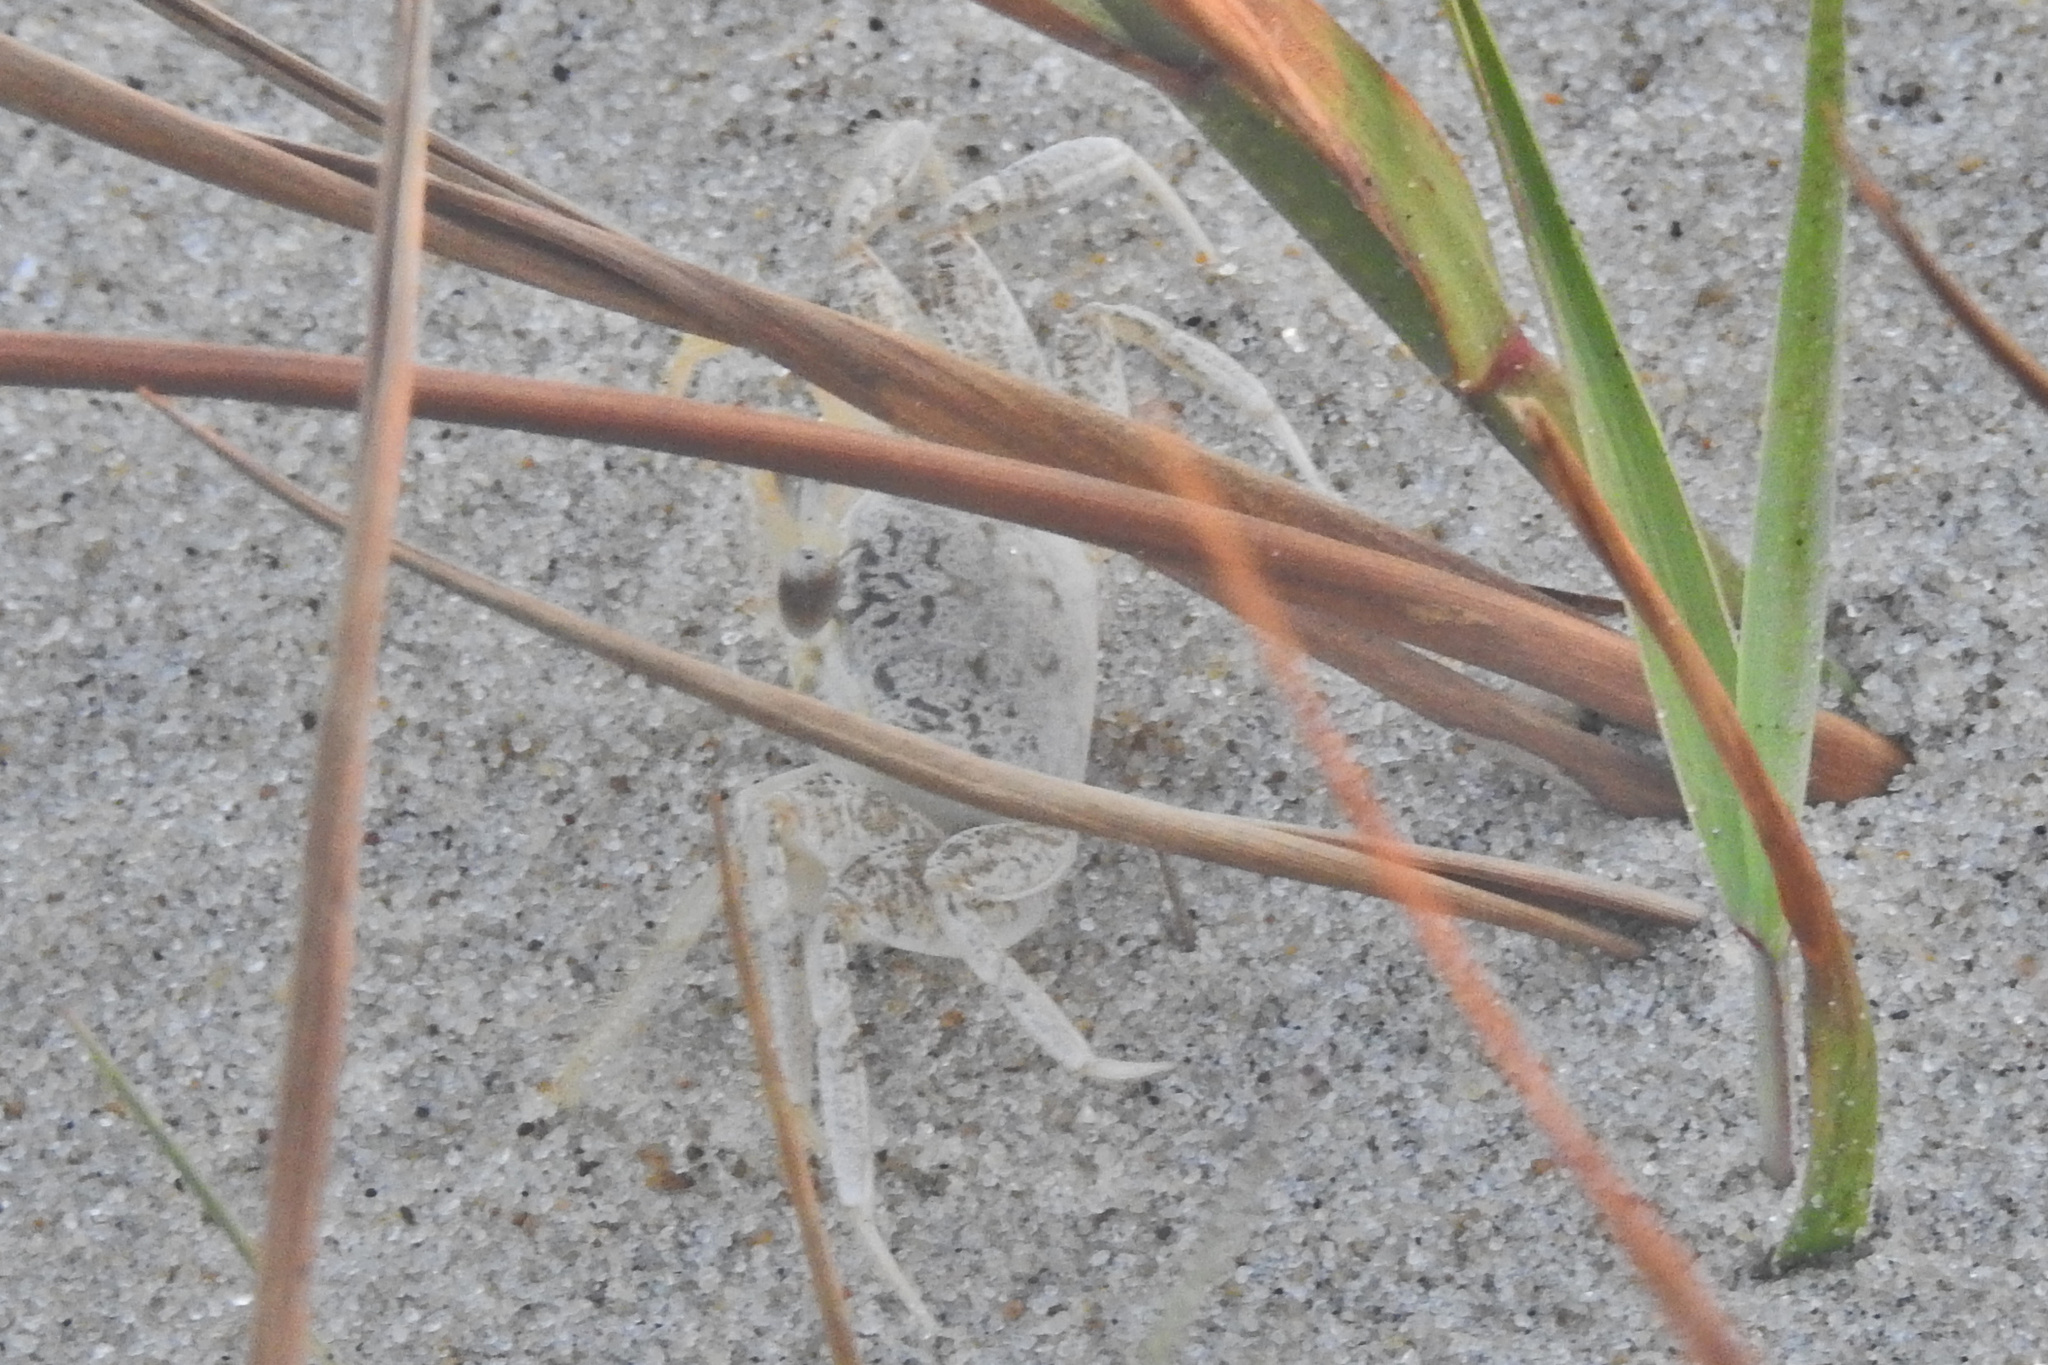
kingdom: Animalia
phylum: Arthropoda
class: Malacostraca
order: Decapoda
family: Ocypodidae
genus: Ocypode
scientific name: Ocypode quadrata
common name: Ghost crab
